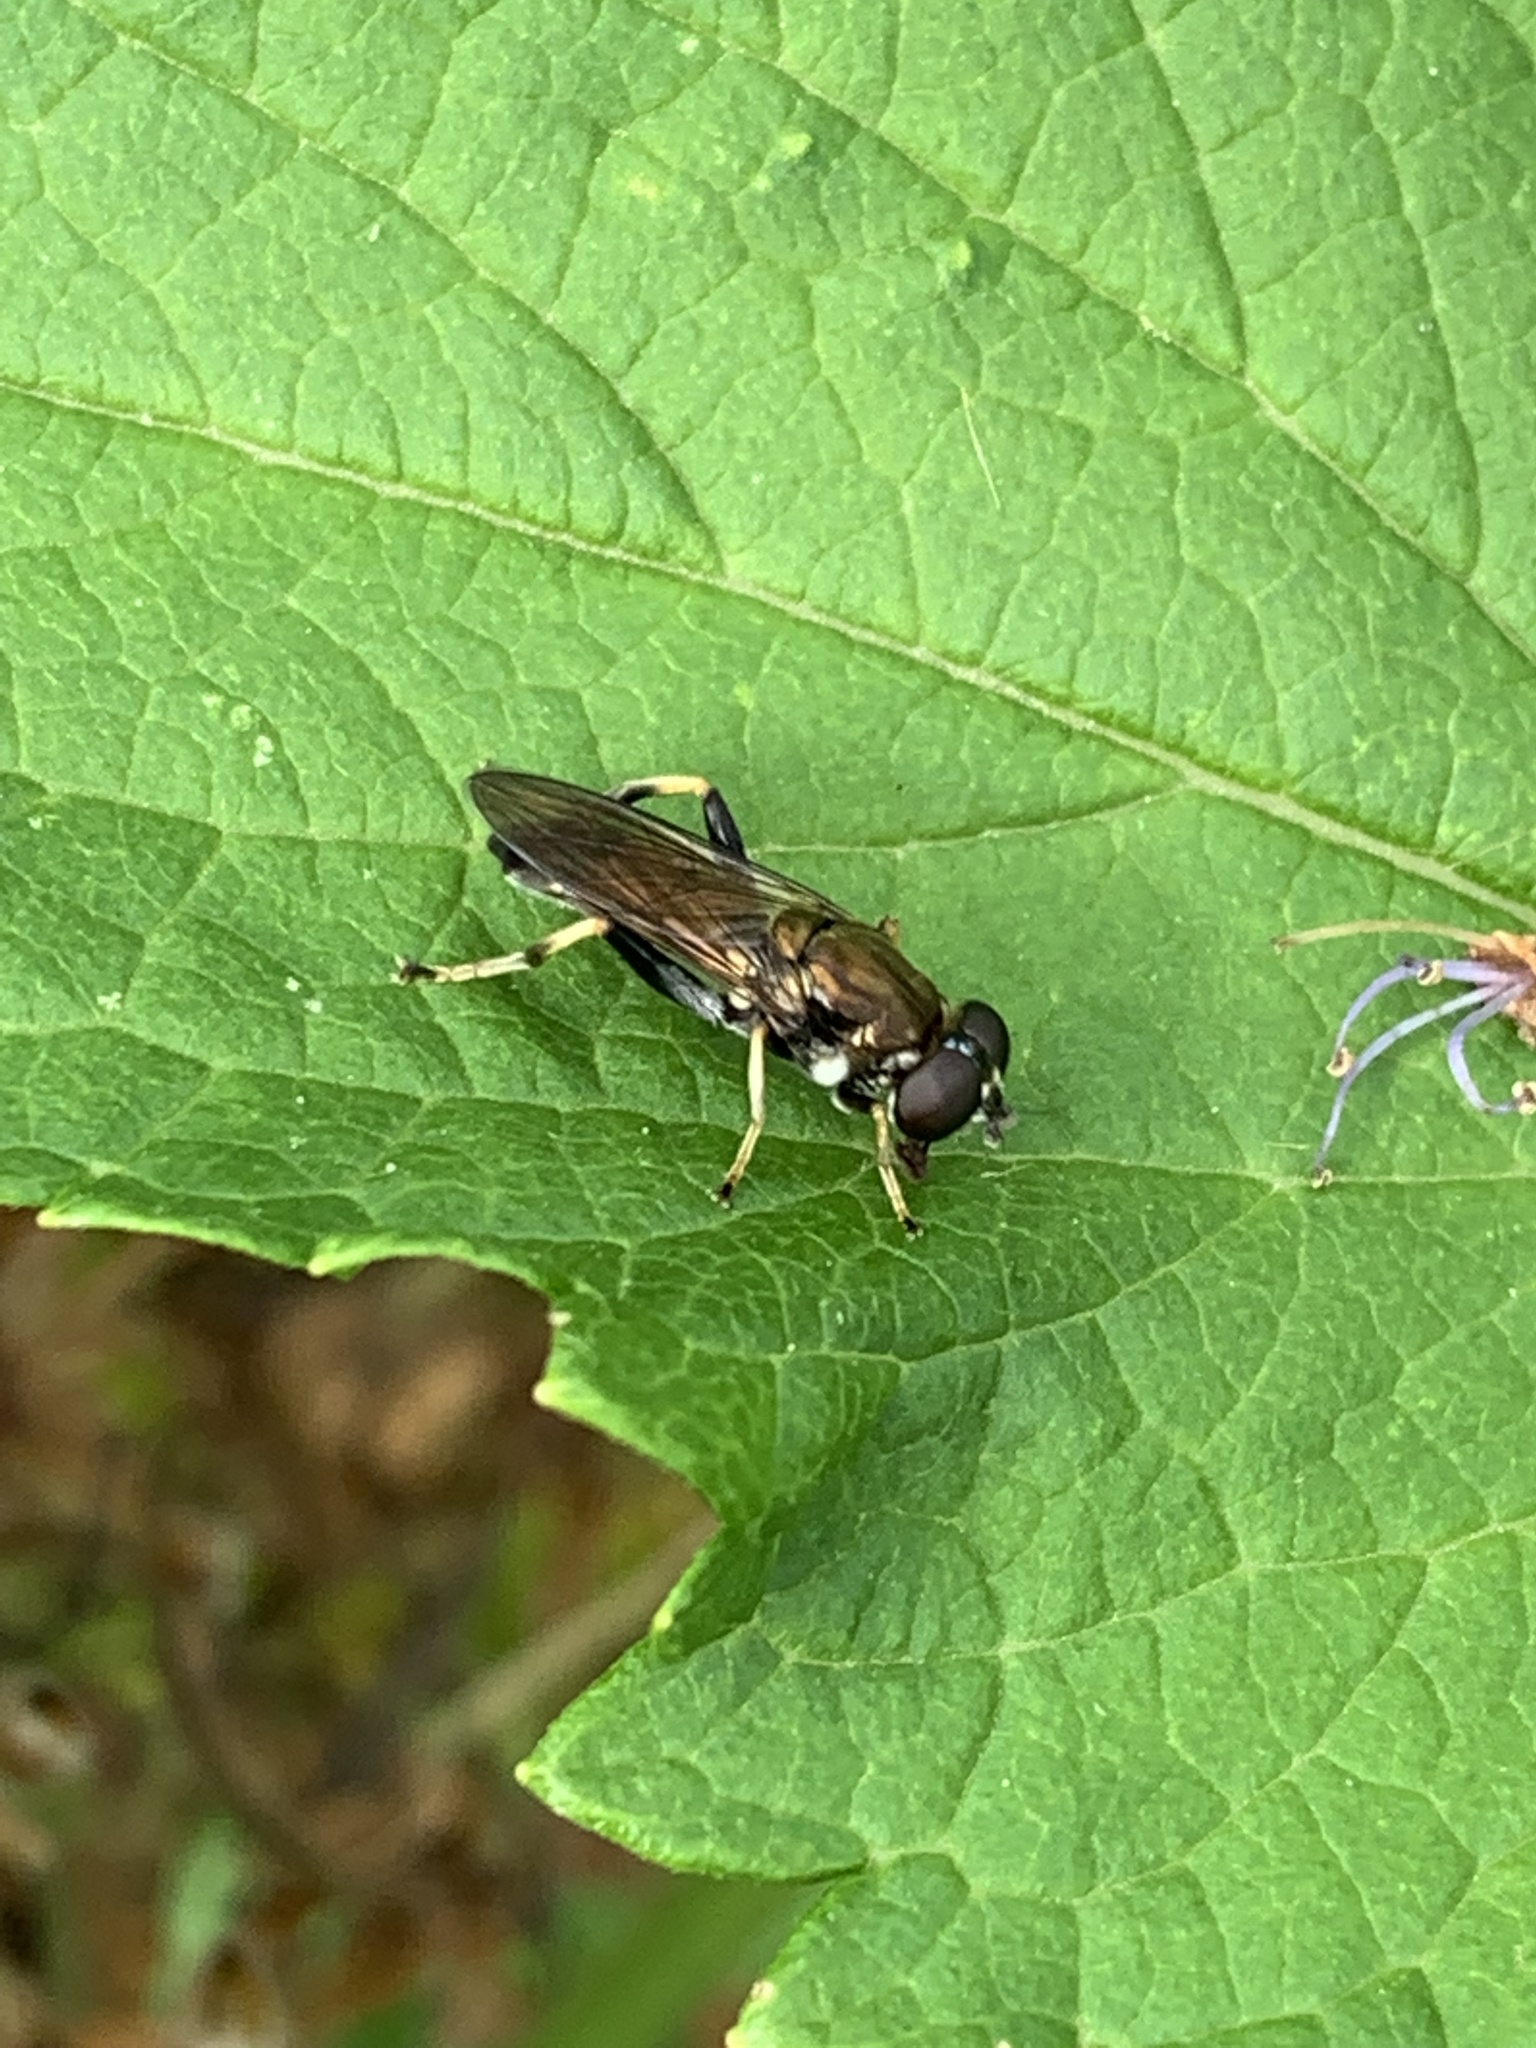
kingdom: Animalia
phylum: Arthropoda
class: Insecta
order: Diptera
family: Syrphidae
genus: Xylota
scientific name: Xylota segnis
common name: Brown-toed forest fly
